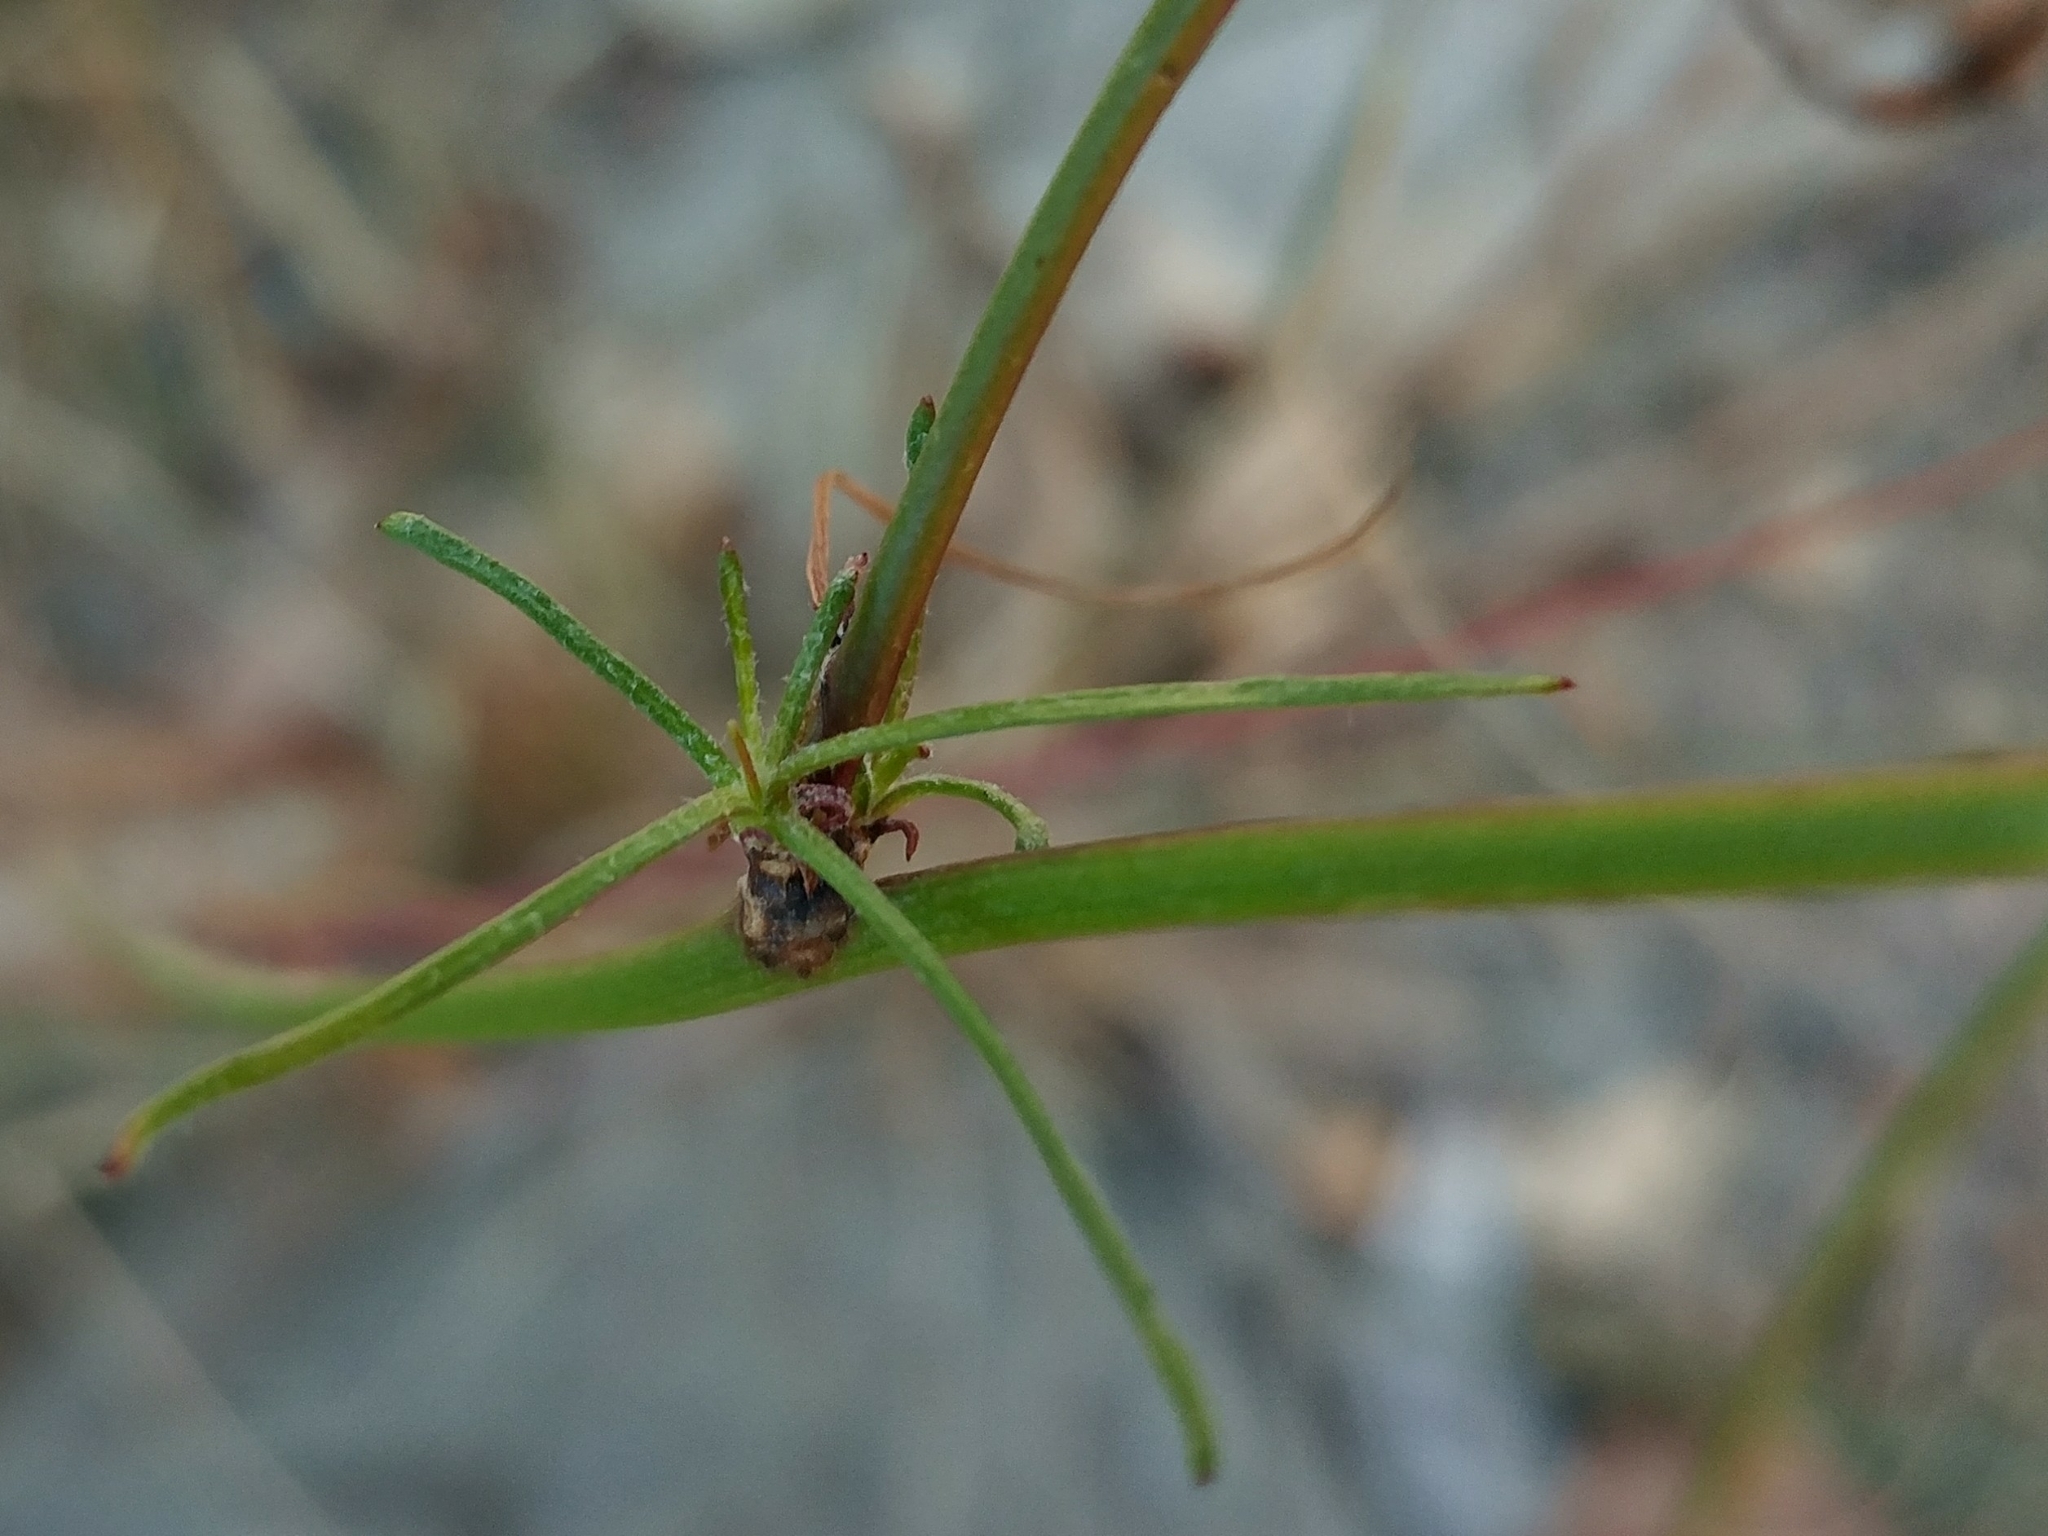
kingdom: Plantae
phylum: Tracheophyta
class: Magnoliopsida
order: Asterales
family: Asteraceae
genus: Malacothrix
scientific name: Malacothrix saxatilis
